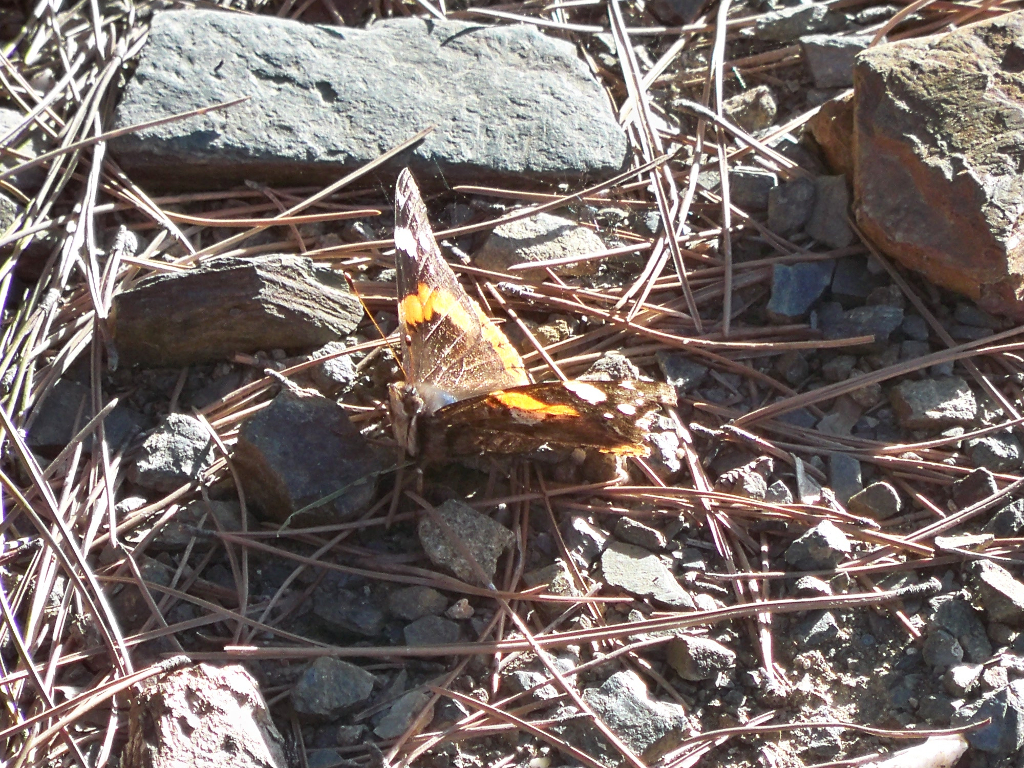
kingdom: Animalia
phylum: Arthropoda
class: Insecta
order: Lepidoptera
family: Nymphalidae
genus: Vanessa
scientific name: Vanessa atalanta
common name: Red admiral
